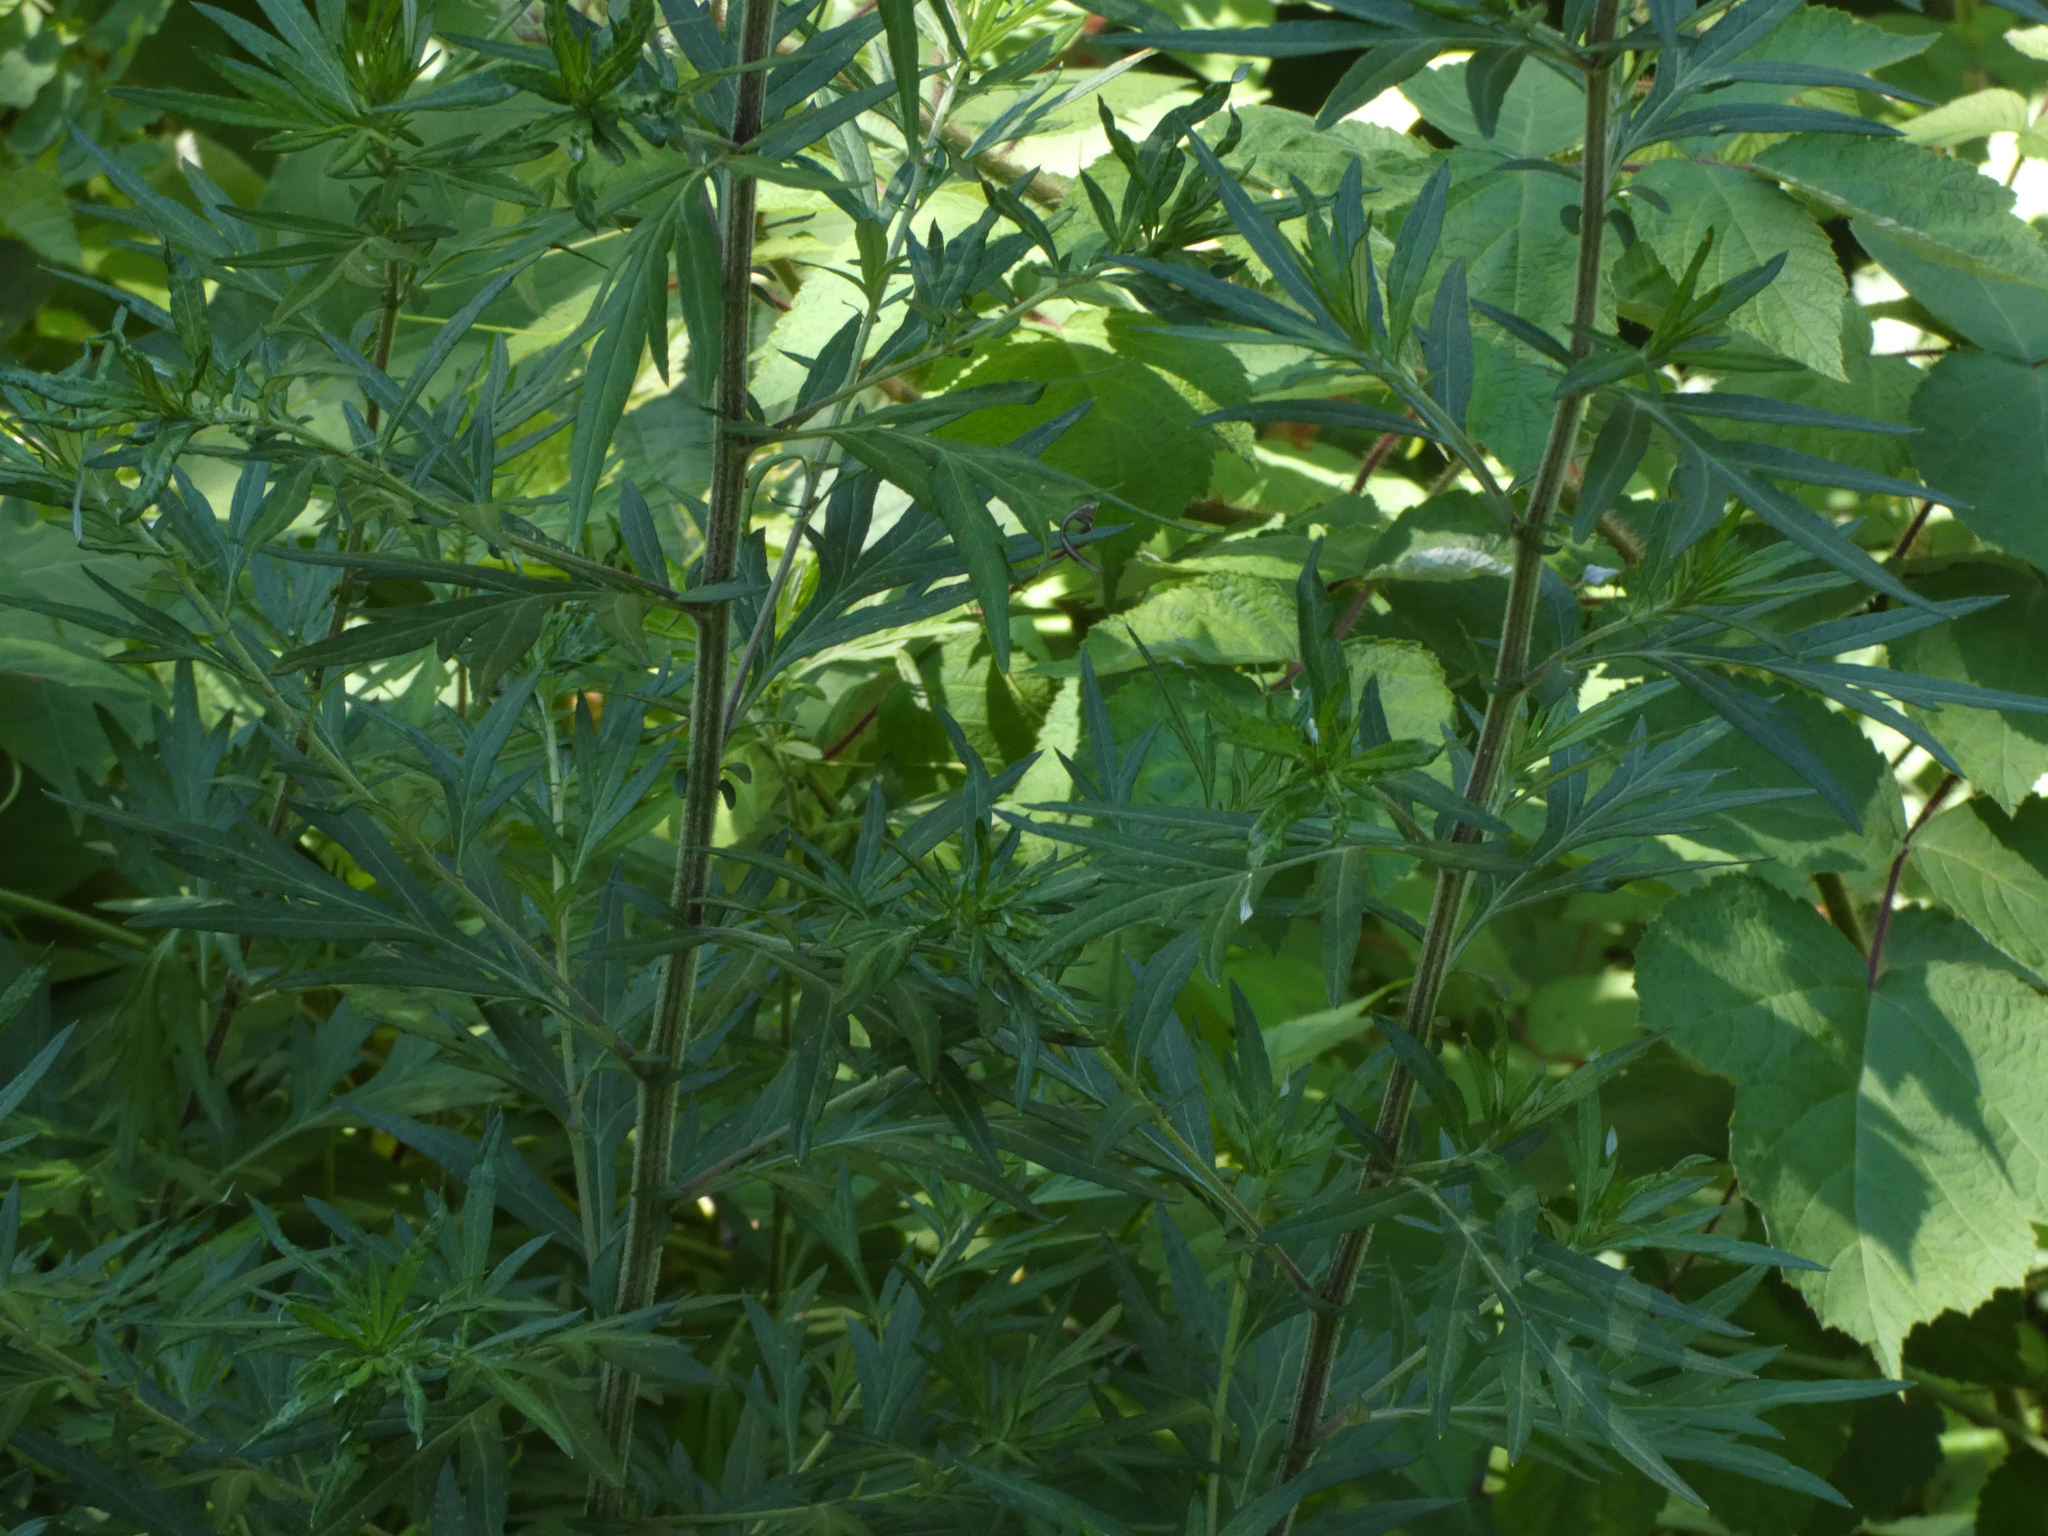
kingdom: Plantae
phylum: Tracheophyta
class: Magnoliopsida
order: Asterales
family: Asteraceae
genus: Artemisia
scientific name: Artemisia vulgaris
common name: Mugwort
